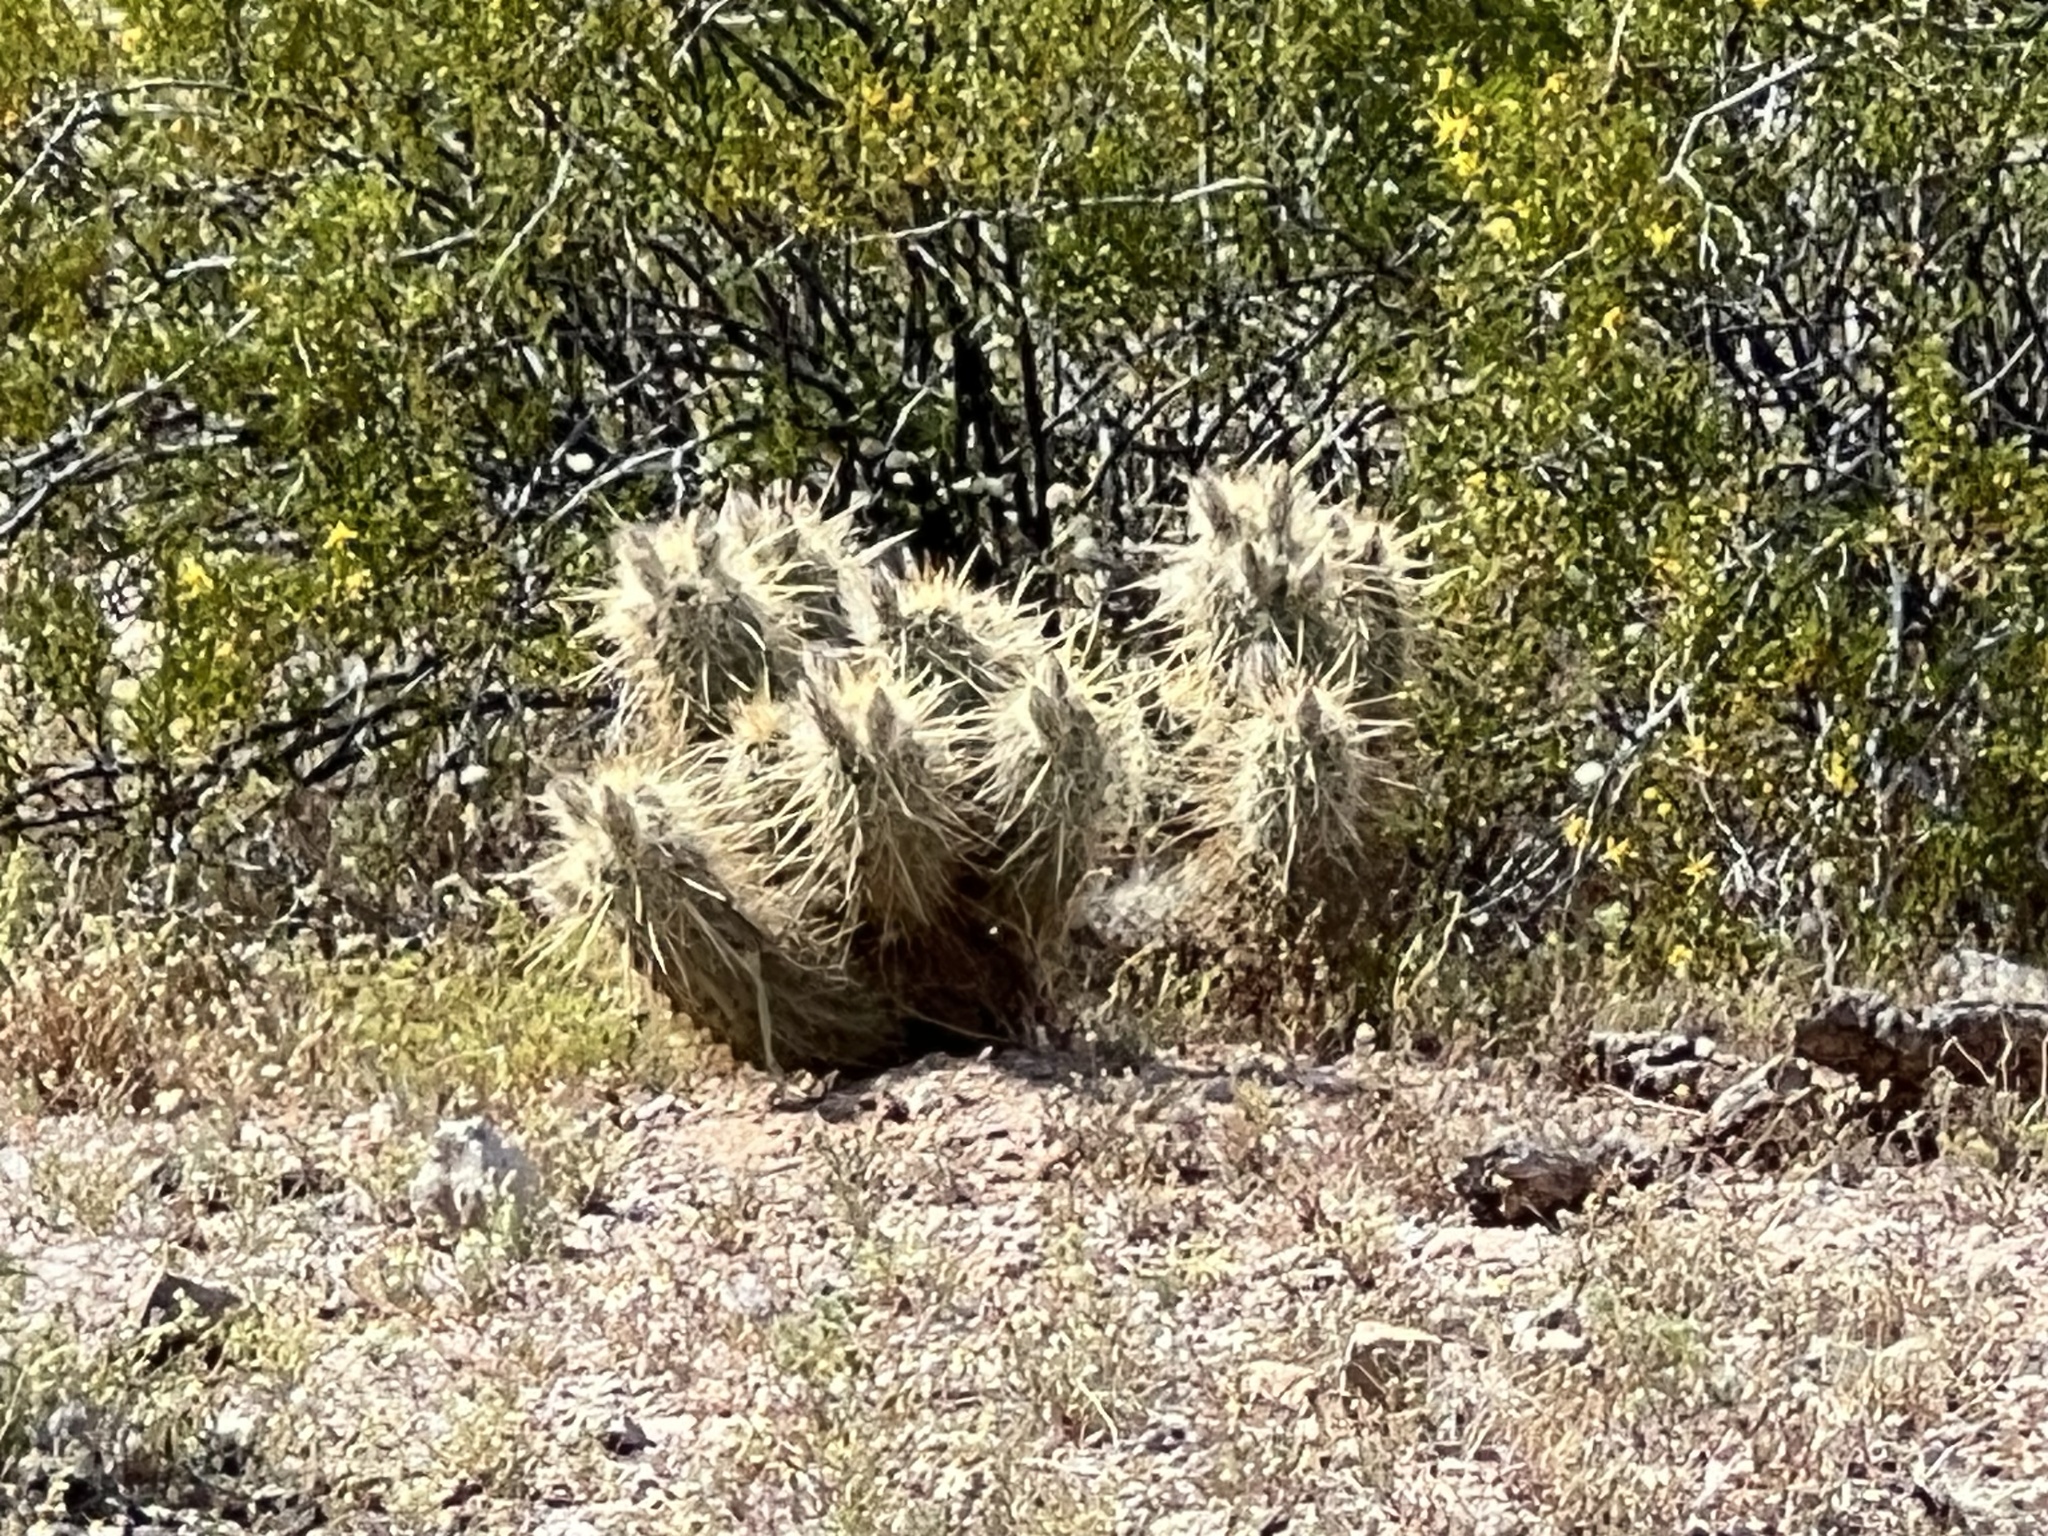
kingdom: Plantae
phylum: Tracheophyta
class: Magnoliopsida
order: Caryophyllales
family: Cactaceae
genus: Echinocereus
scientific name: Echinocereus nicholii
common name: Nichol's hedgehog cactus
